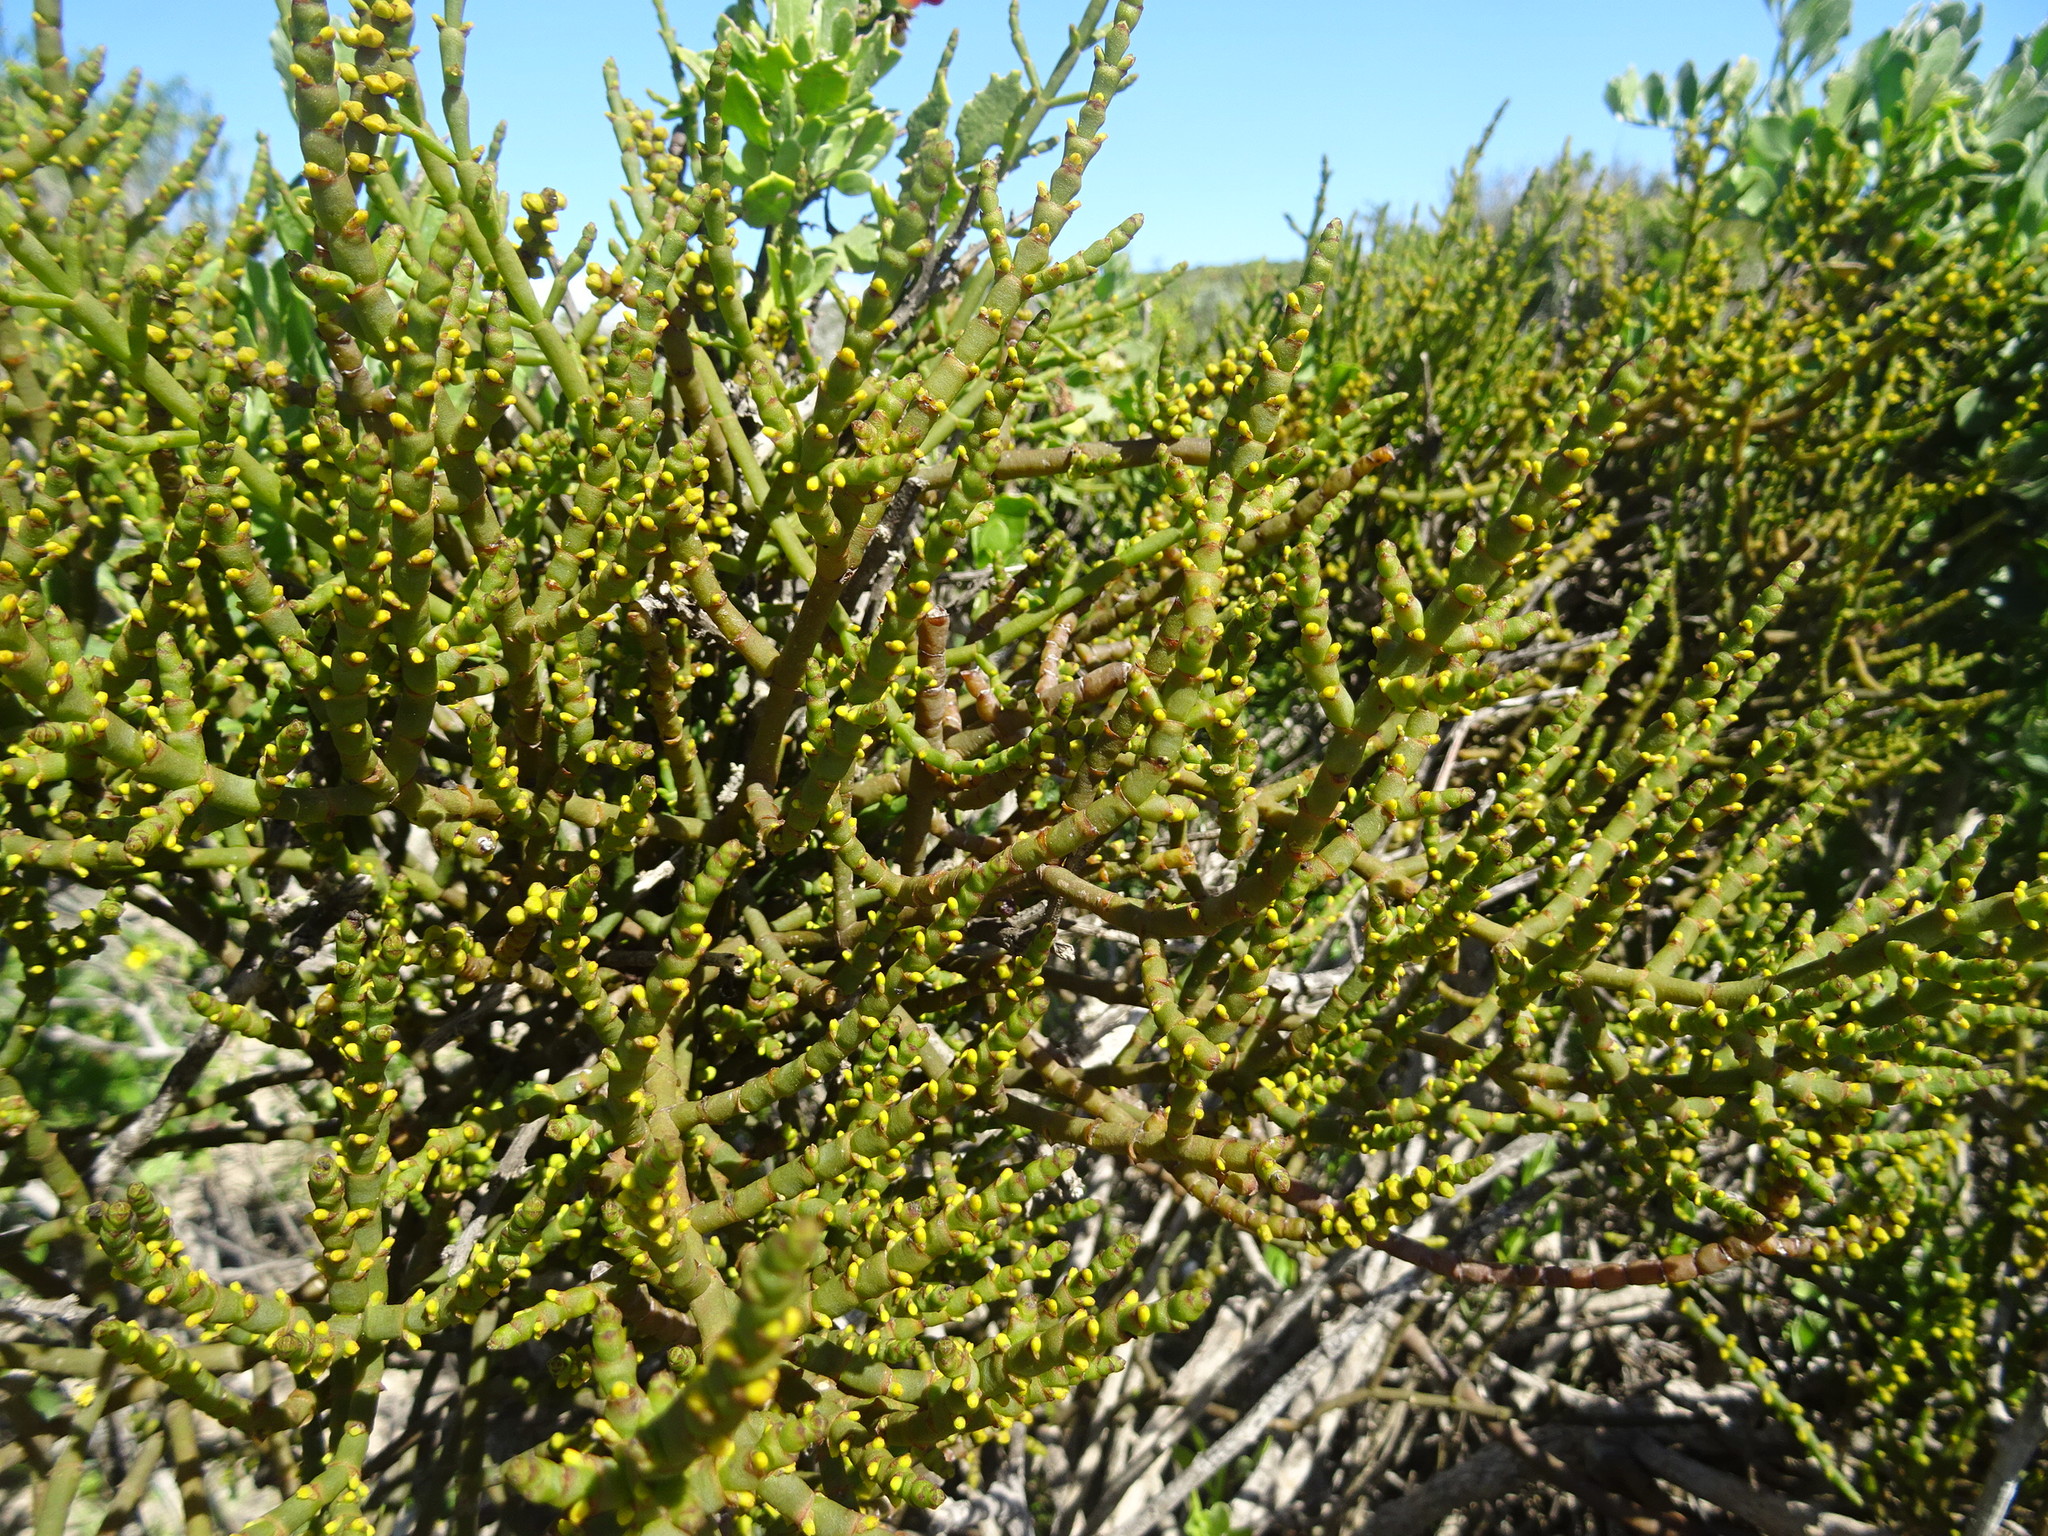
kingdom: Plantae
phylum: Tracheophyta
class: Magnoliopsida
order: Santalales
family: Viscaceae
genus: Viscum
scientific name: Viscum capense
